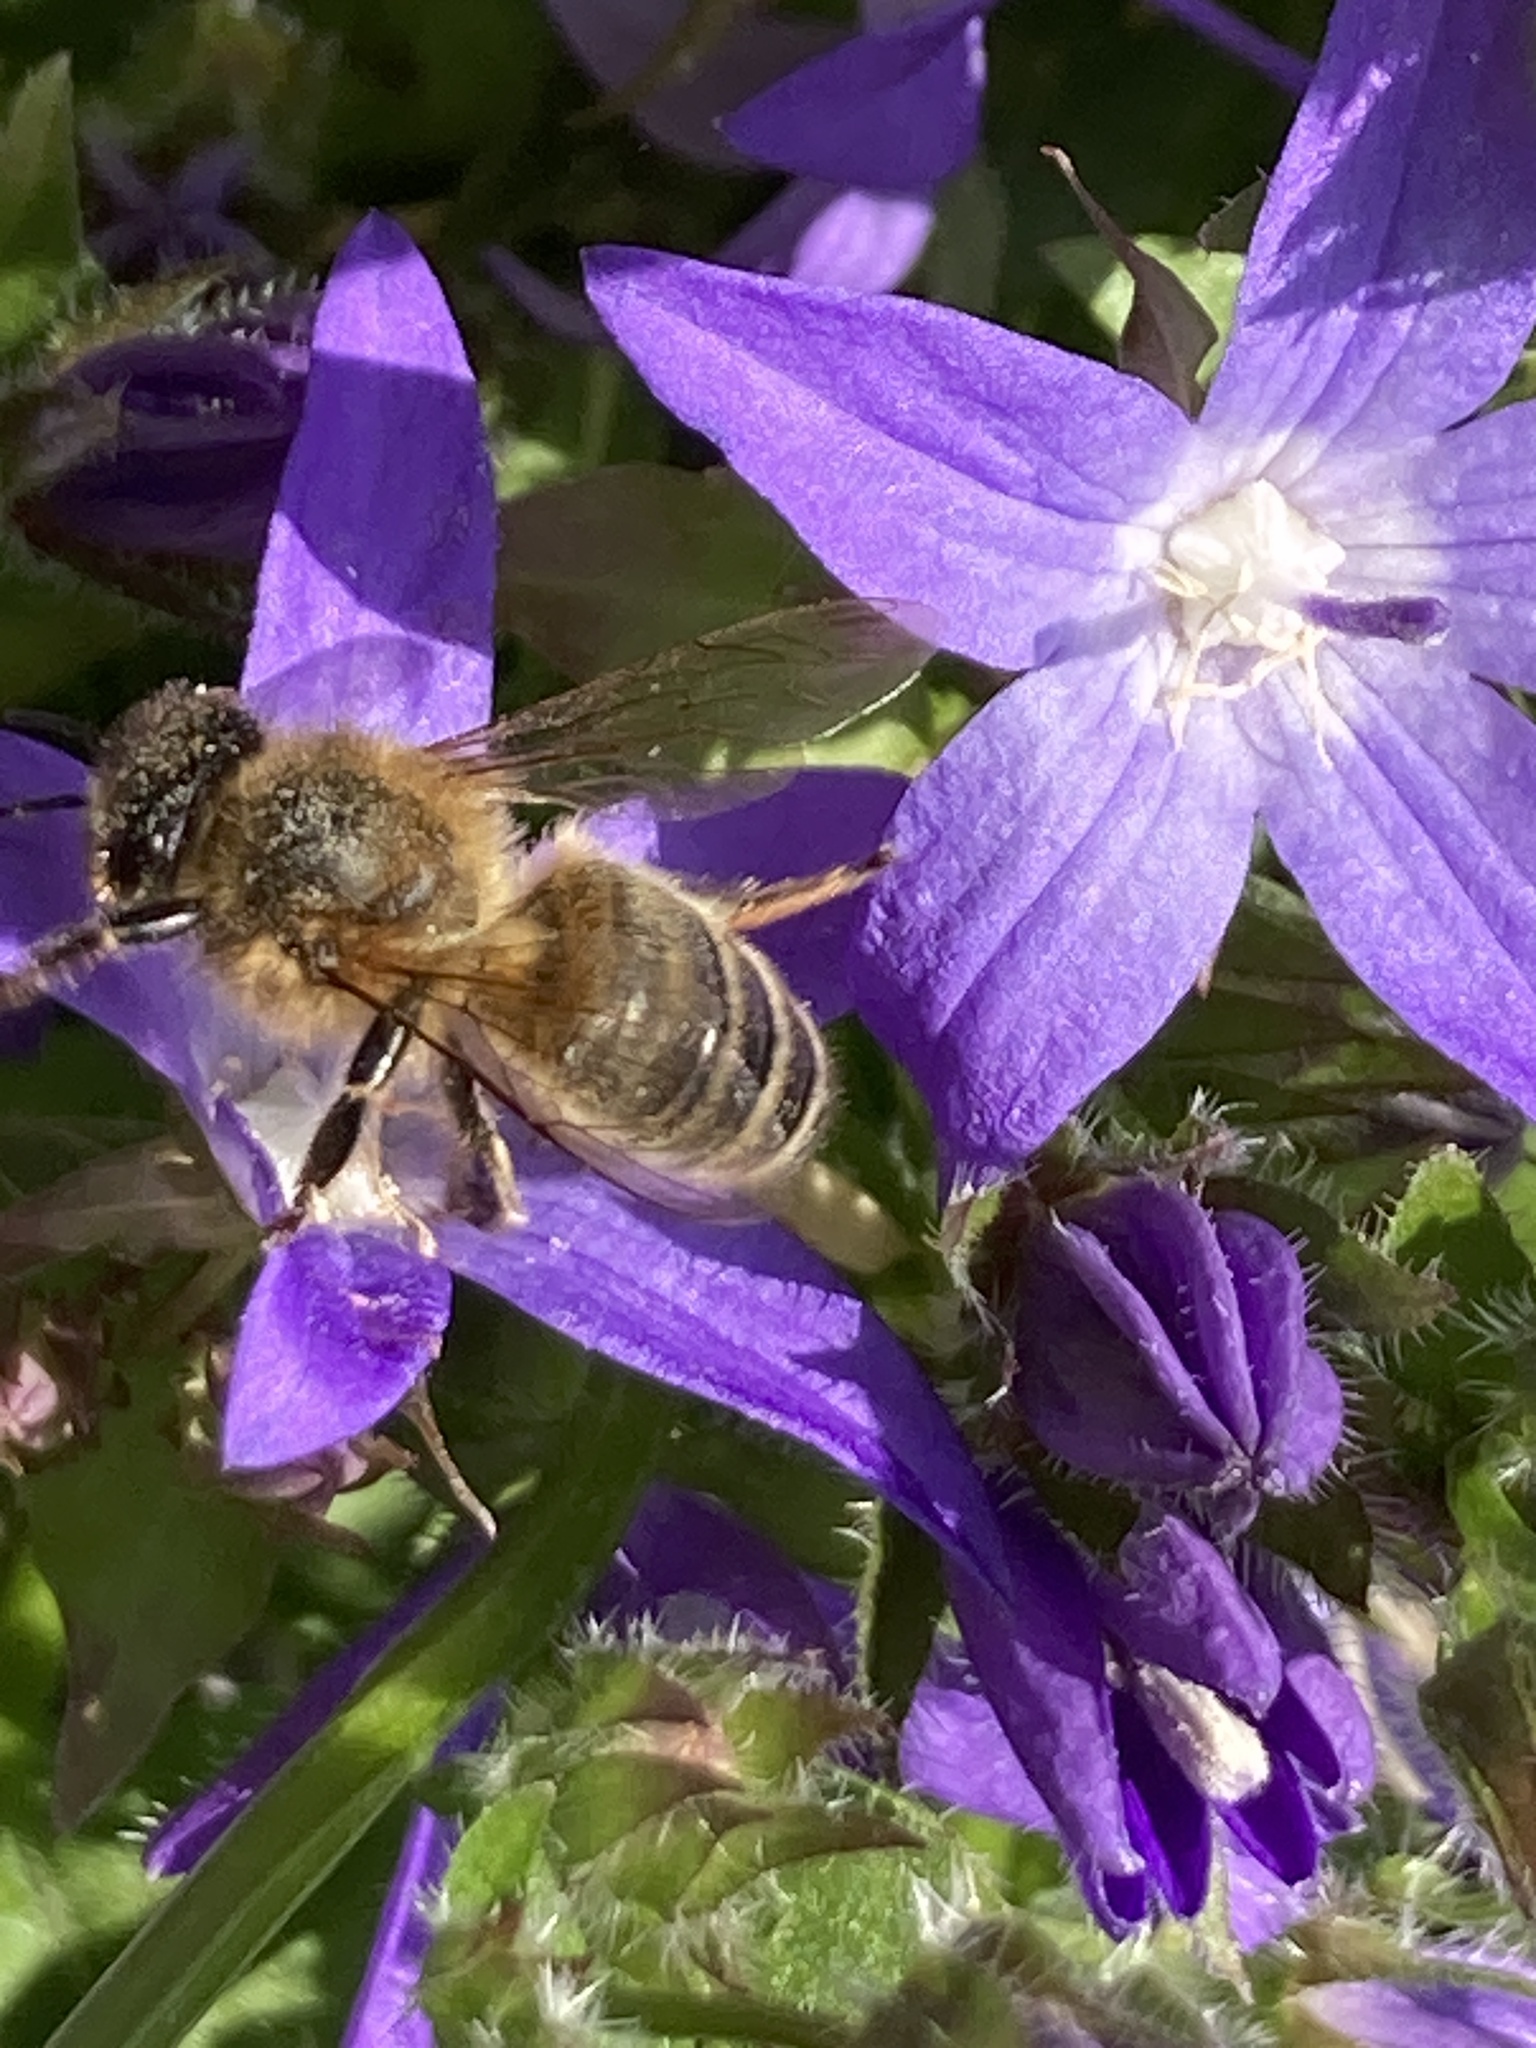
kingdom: Animalia
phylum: Arthropoda
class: Insecta
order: Hymenoptera
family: Apidae
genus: Apis
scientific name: Apis mellifera
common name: Honey bee
